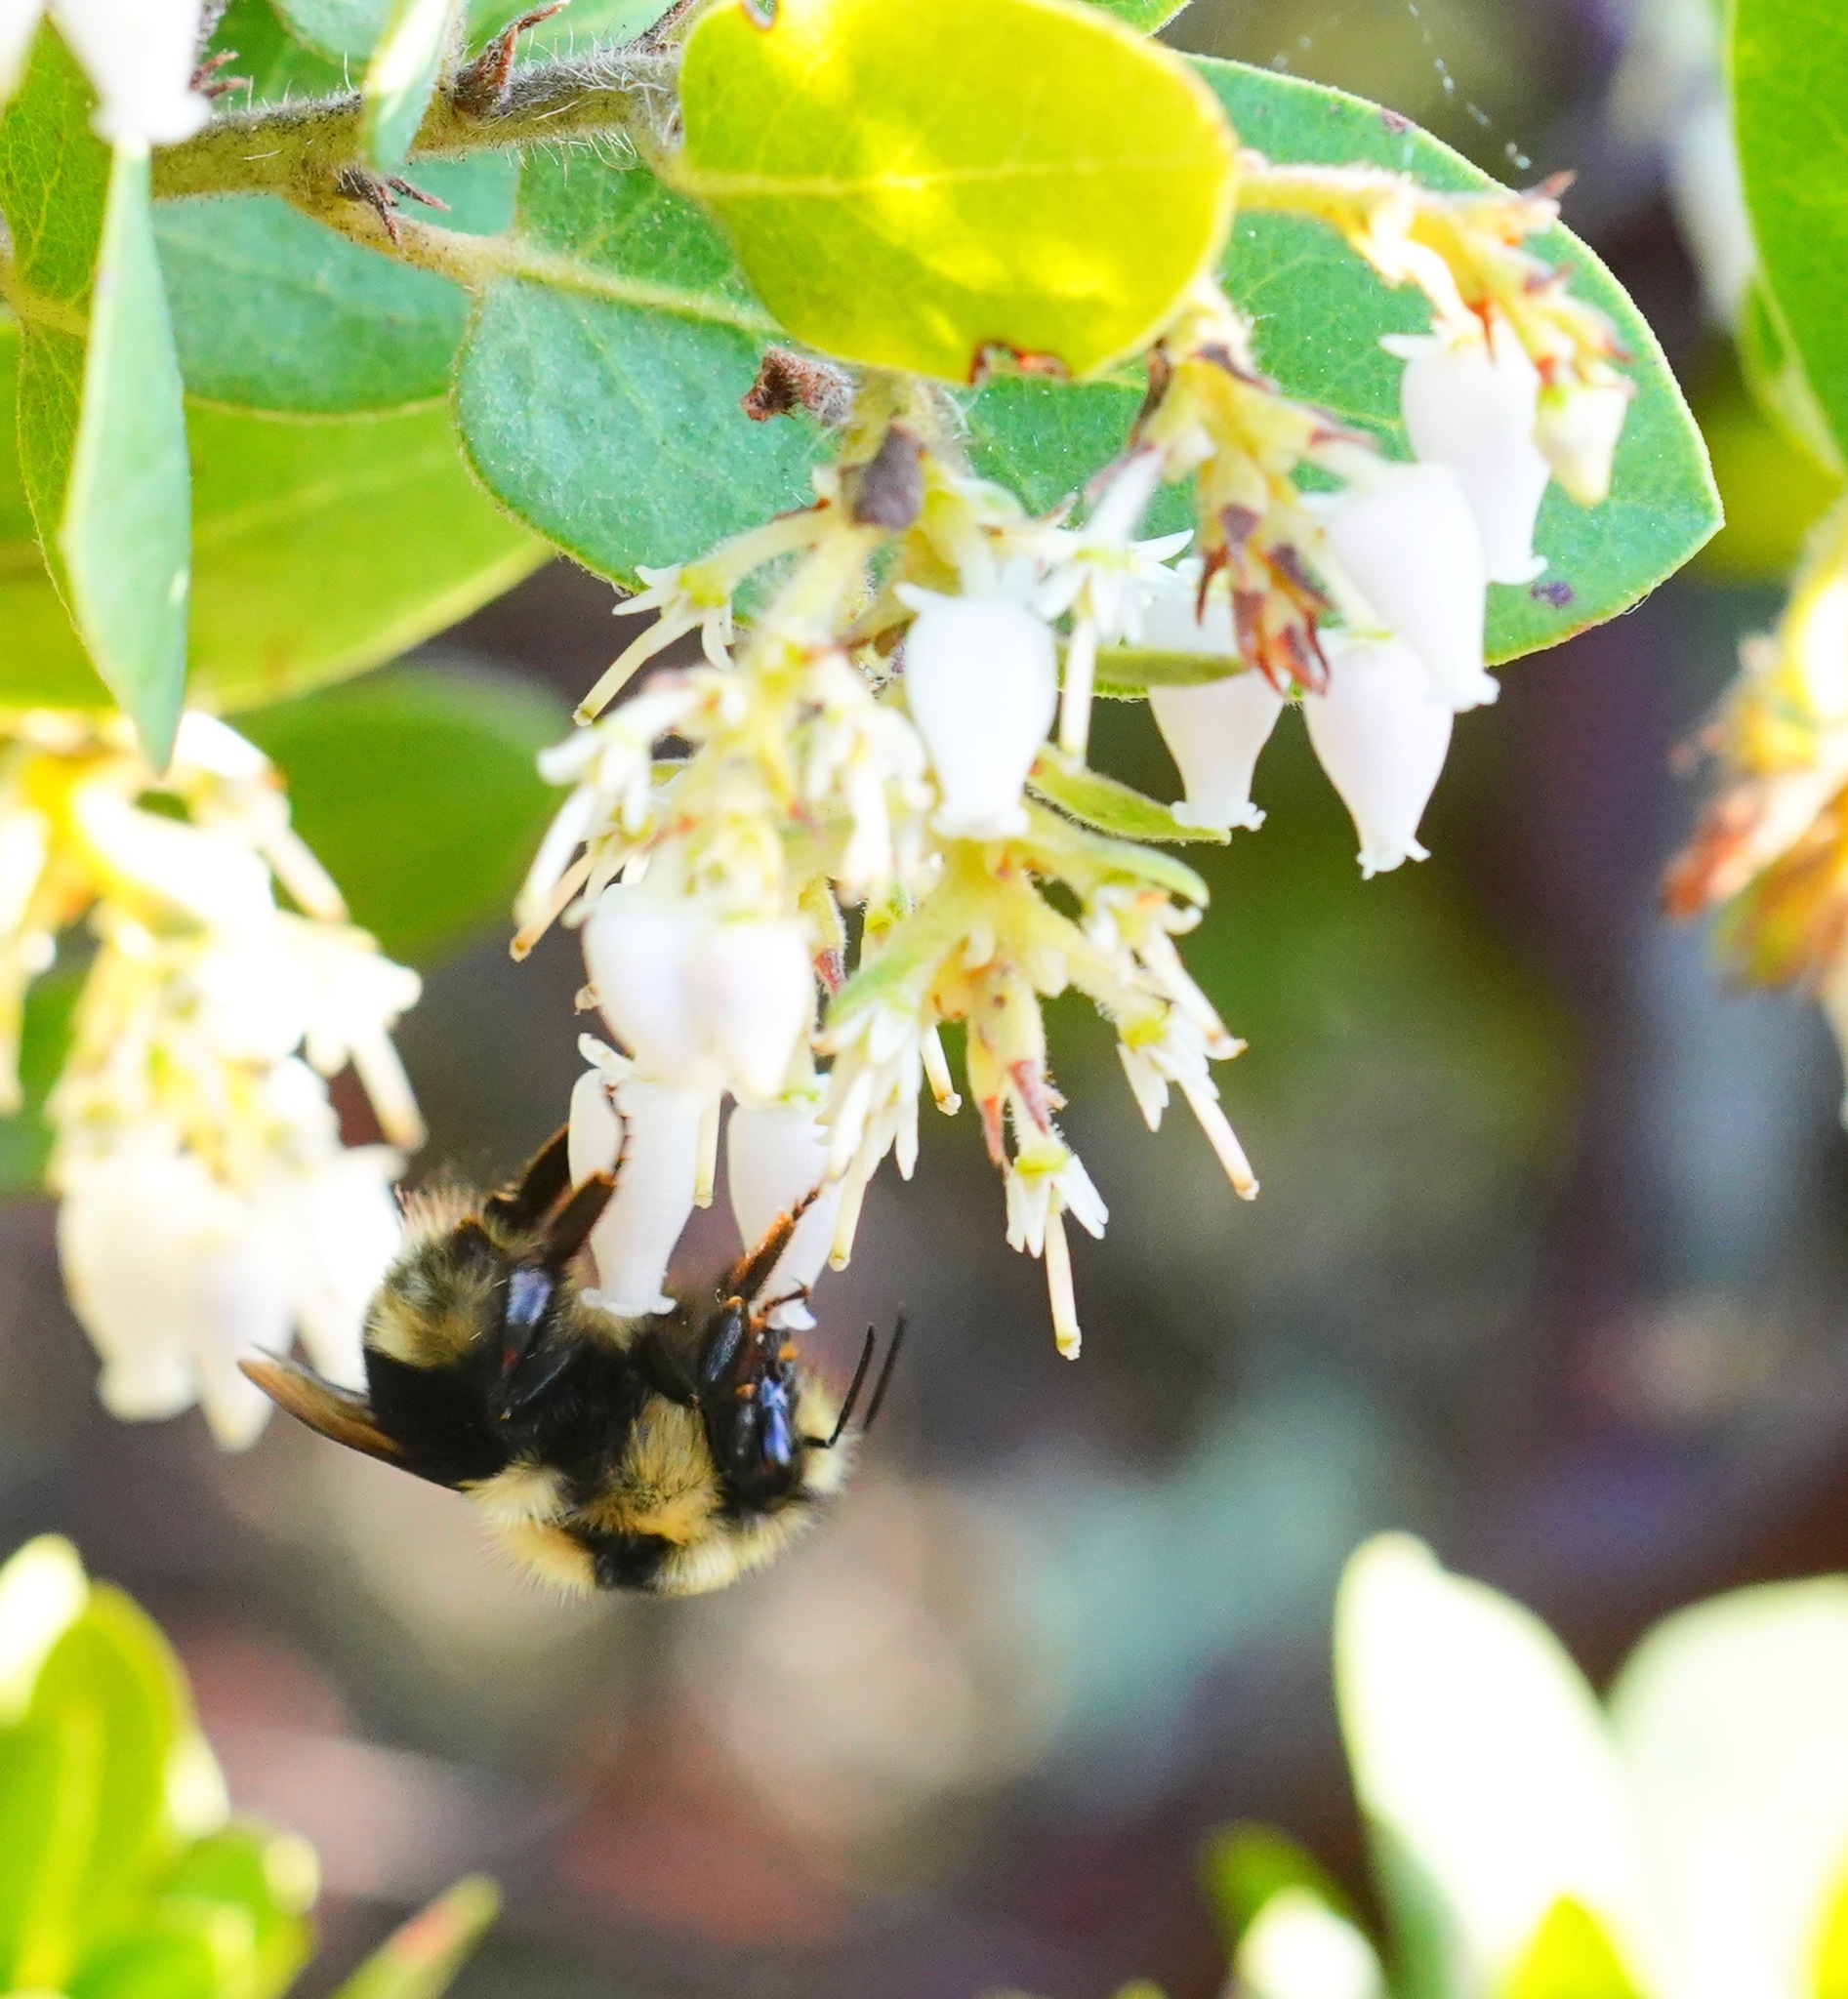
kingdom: Animalia
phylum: Arthropoda
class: Insecta
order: Hymenoptera
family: Apidae
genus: Bombus
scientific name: Bombus melanopygus
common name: Black tail bumble bee
